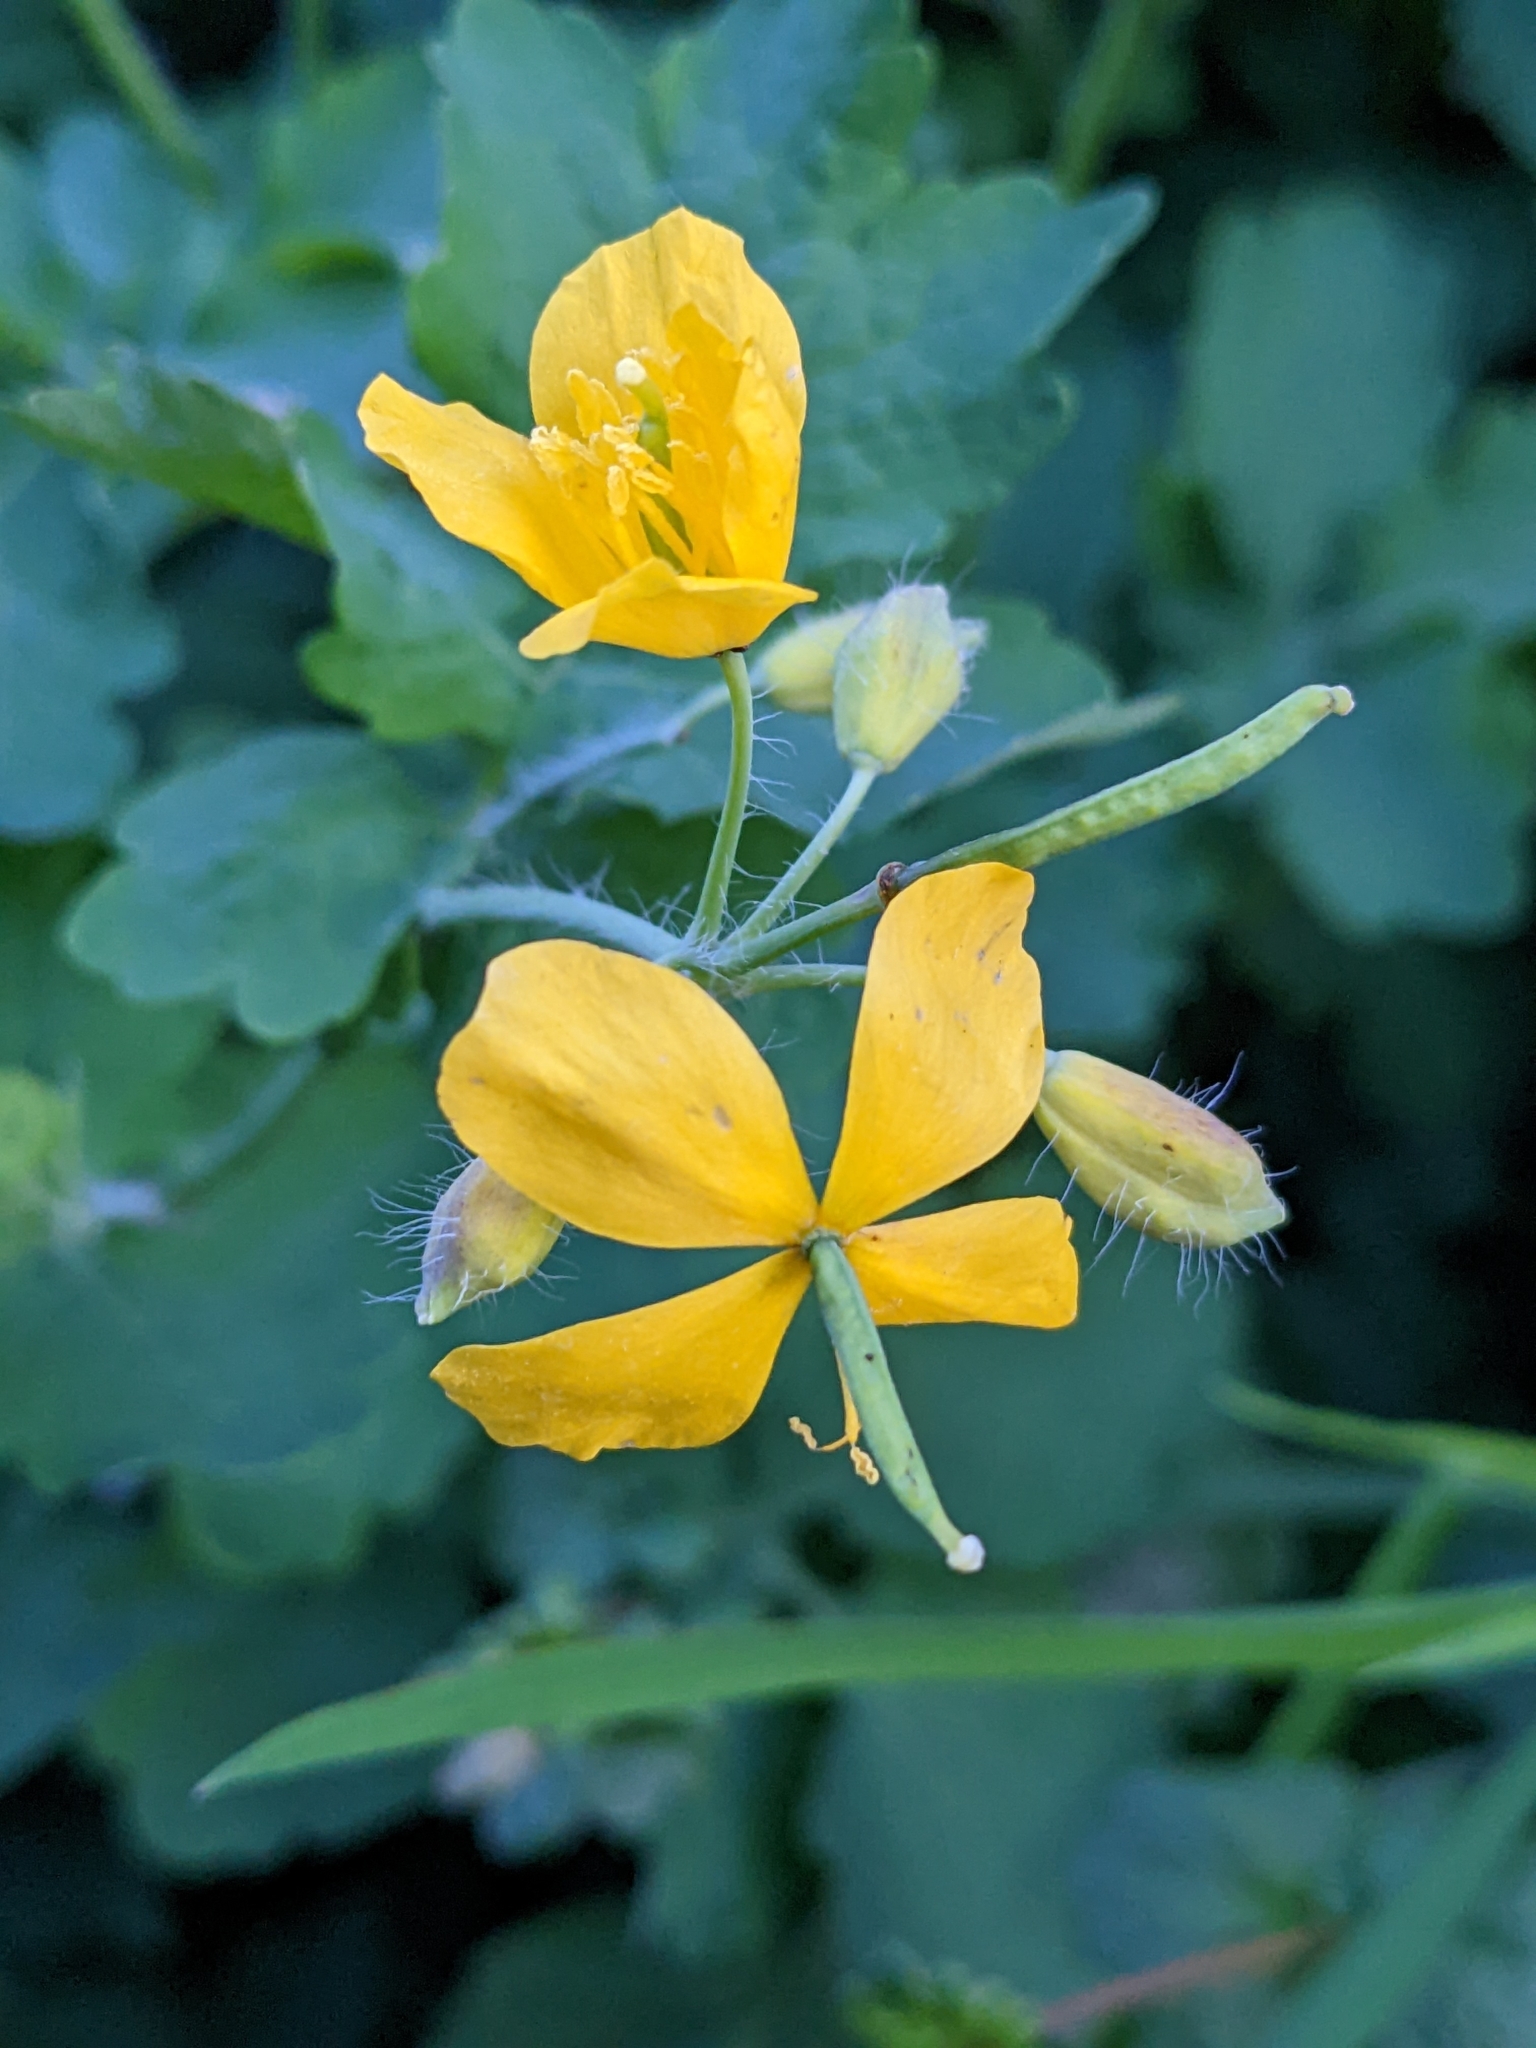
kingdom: Plantae
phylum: Tracheophyta
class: Magnoliopsida
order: Ranunculales
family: Papaveraceae
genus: Chelidonium
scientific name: Chelidonium majus
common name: Greater celandine
